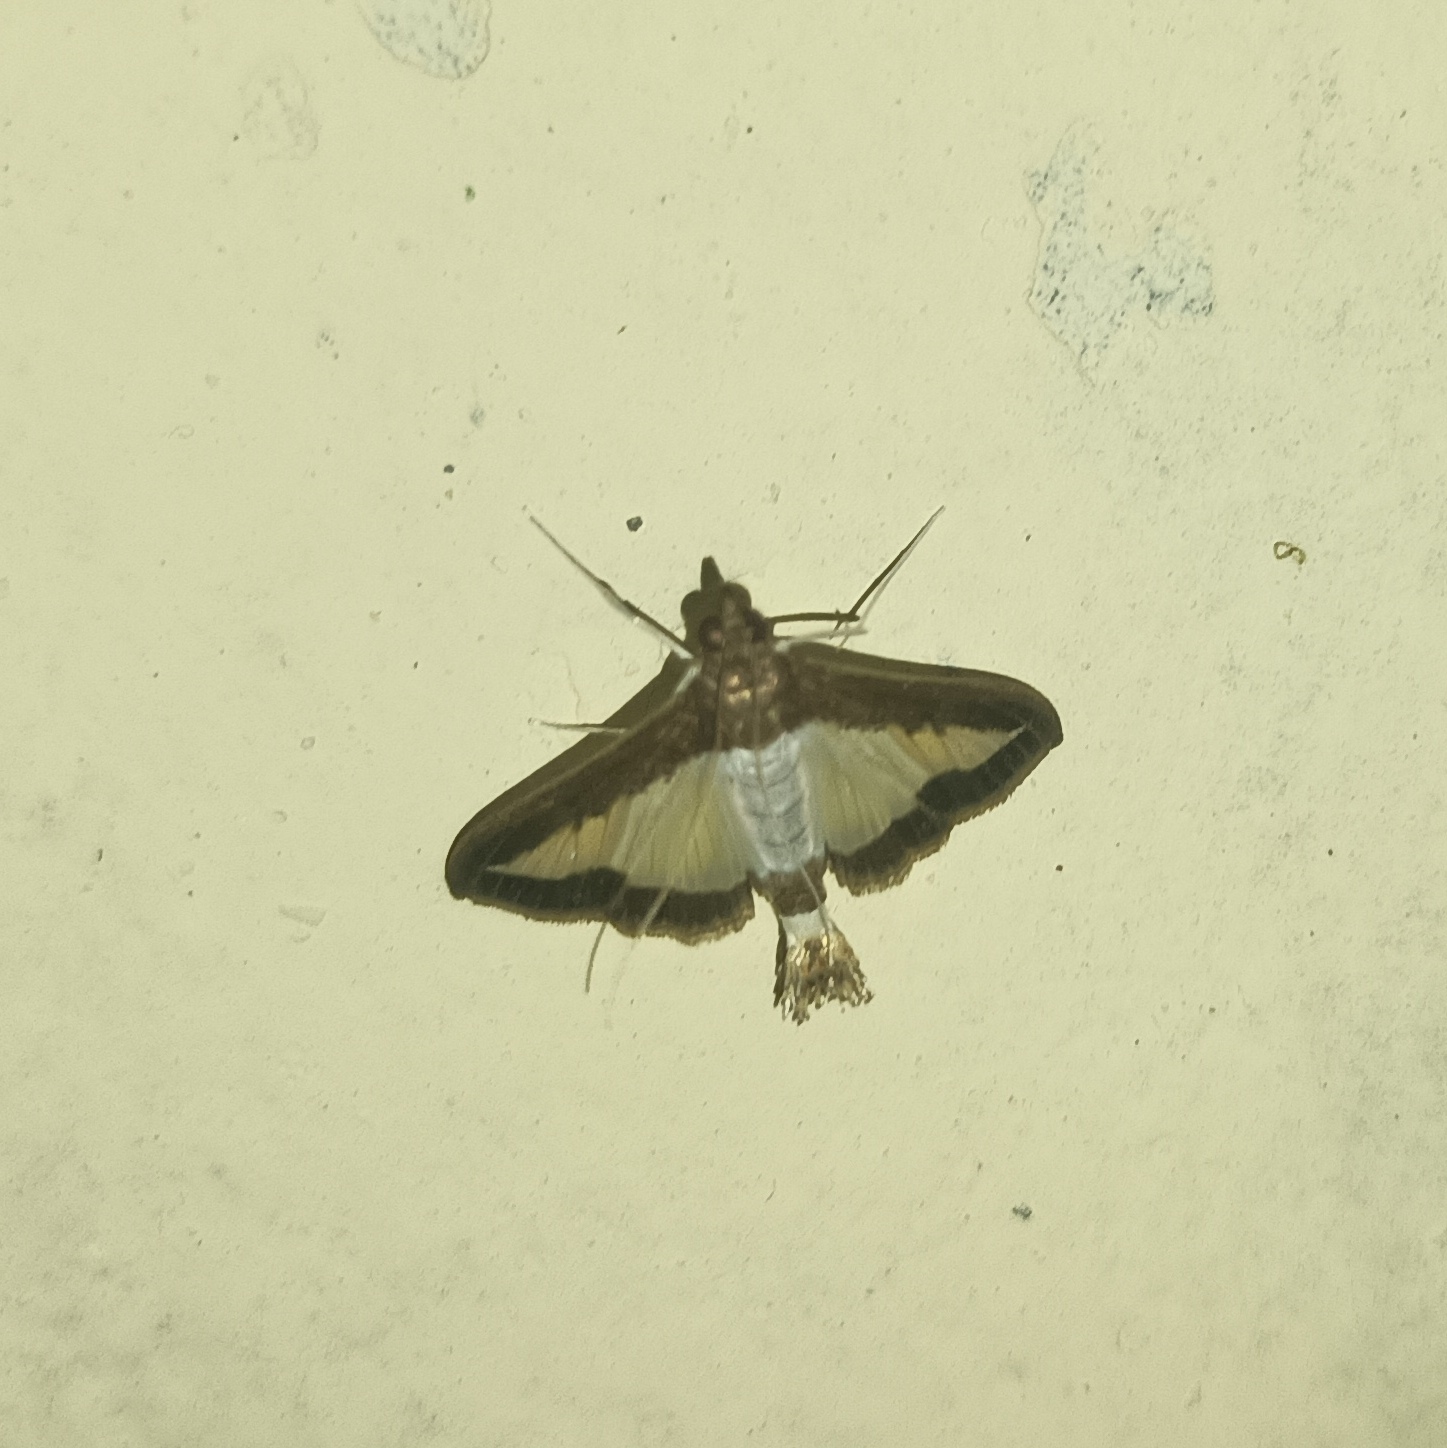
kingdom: Animalia
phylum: Arthropoda
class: Insecta
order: Lepidoptera
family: Crambidae
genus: Diaphania
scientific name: Diaphania indica
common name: Cucumber moth
